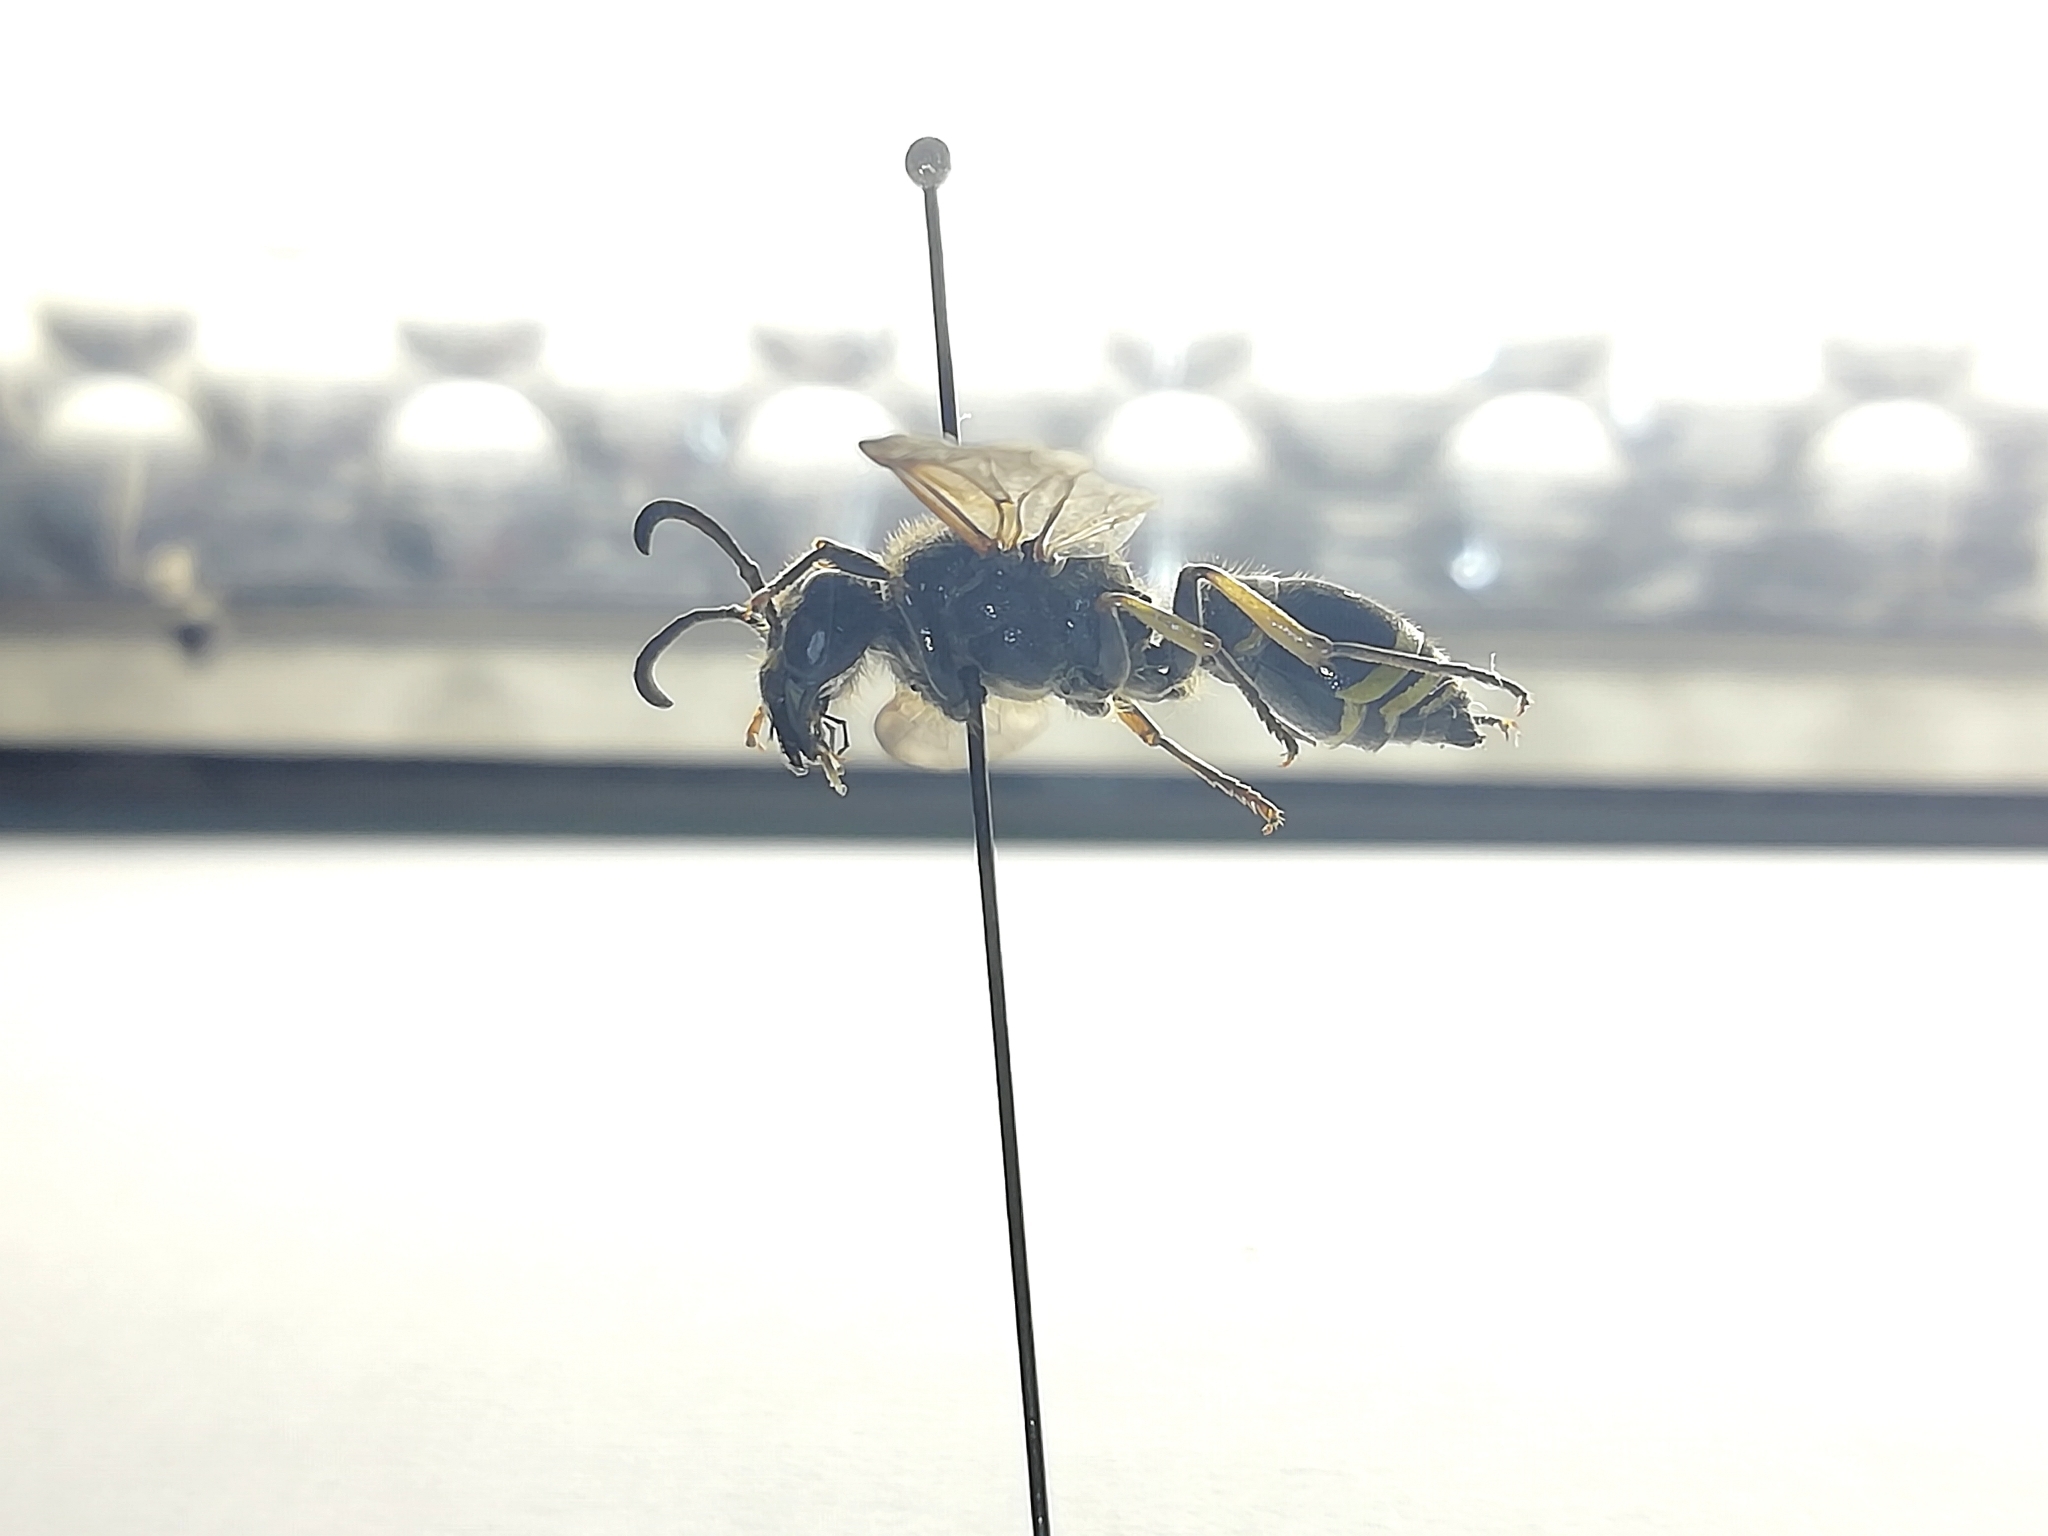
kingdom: Animalia
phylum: Arthropoda
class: Insecta
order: Hymenoptera
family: Vespidae
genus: Ancistrocerus
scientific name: Ancistrocerus parietinus
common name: Wall mason wasp
